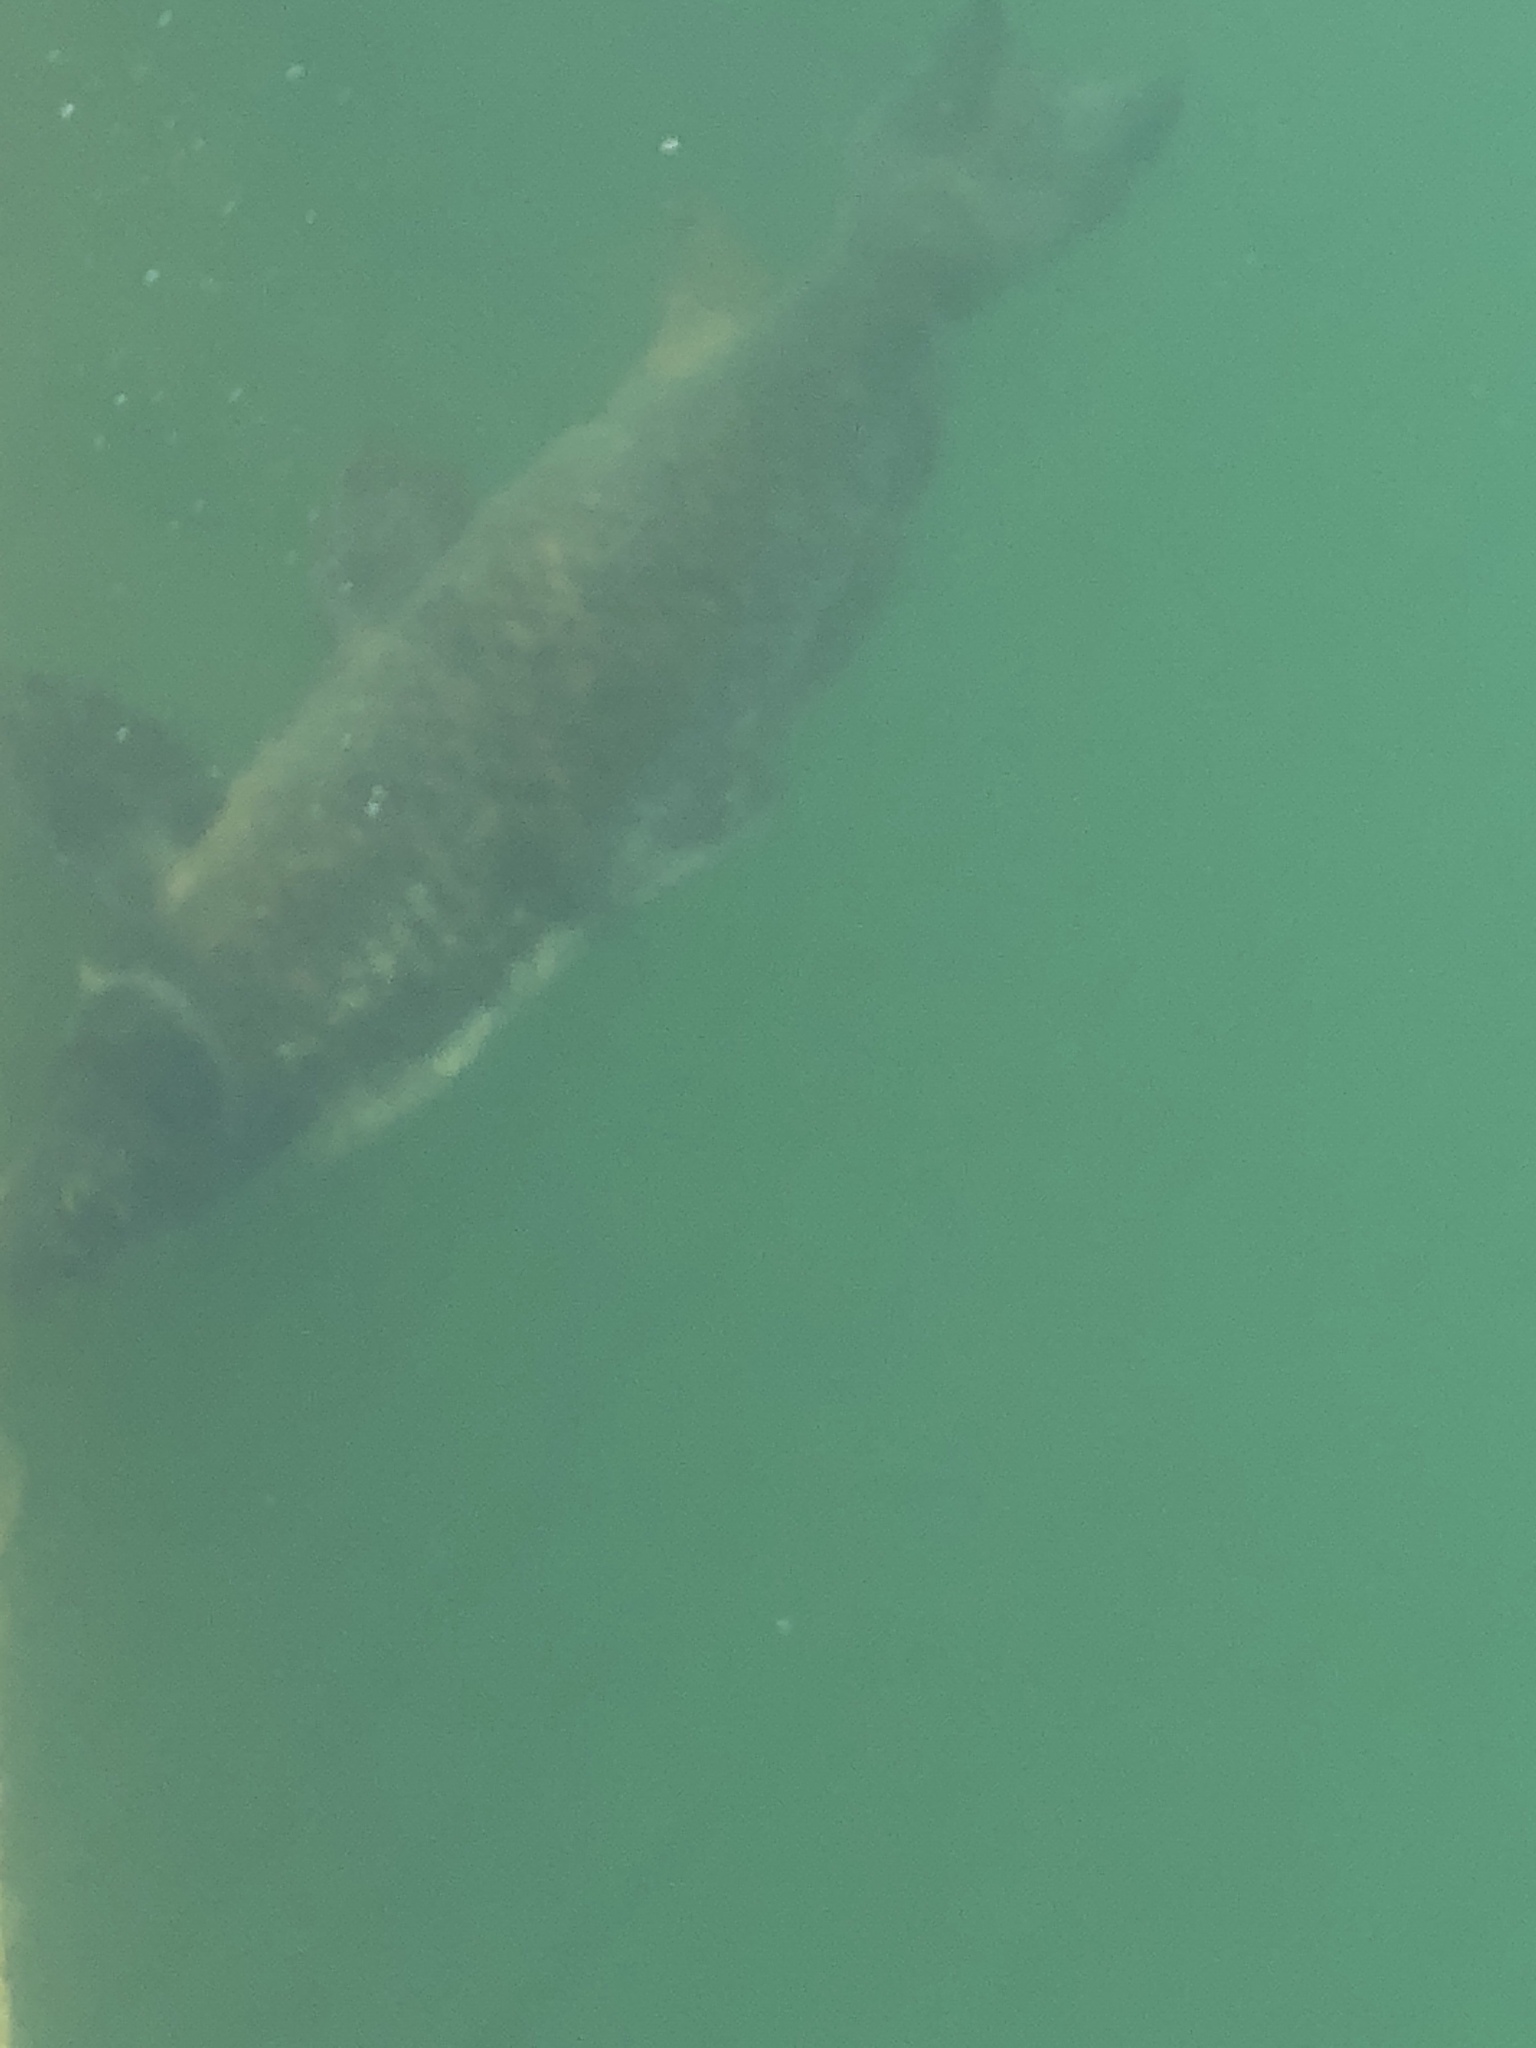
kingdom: Animalia
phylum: Chordata
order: Cypriniformes
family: Cyprinidae
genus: Cyprinus
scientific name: Cyprinus carpio
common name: Common carp
